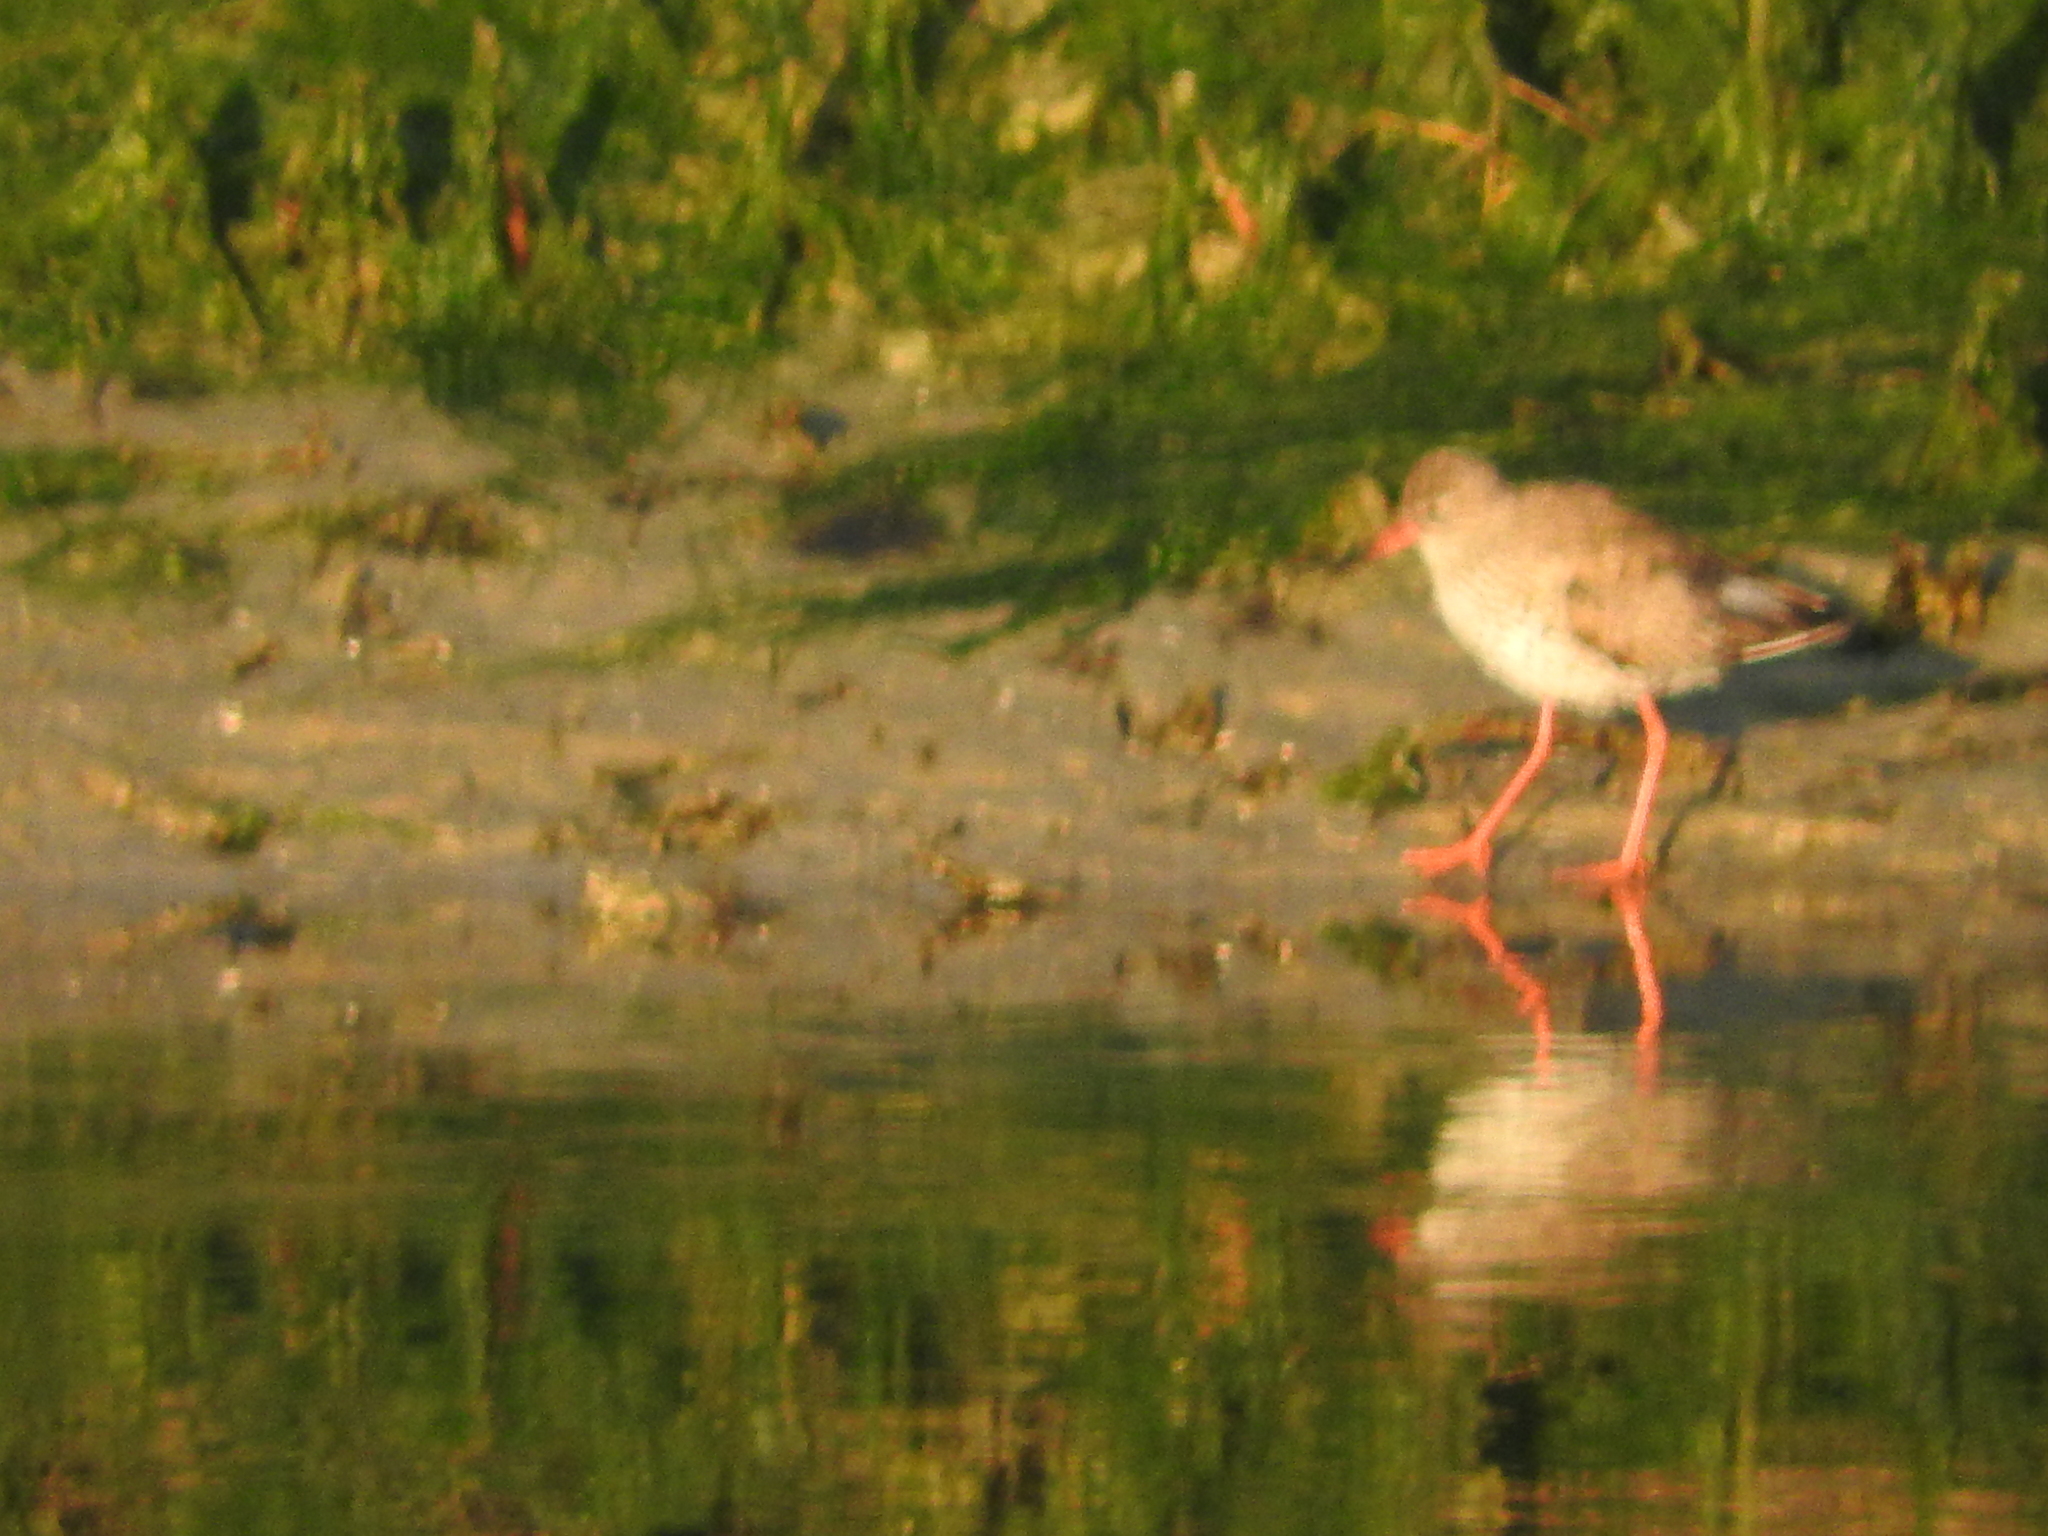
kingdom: Animalia
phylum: Chordata
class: Aves
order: Charadriiformes
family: Scolopacidae
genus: Tringa
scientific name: Tringa totanus
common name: Common redshank
